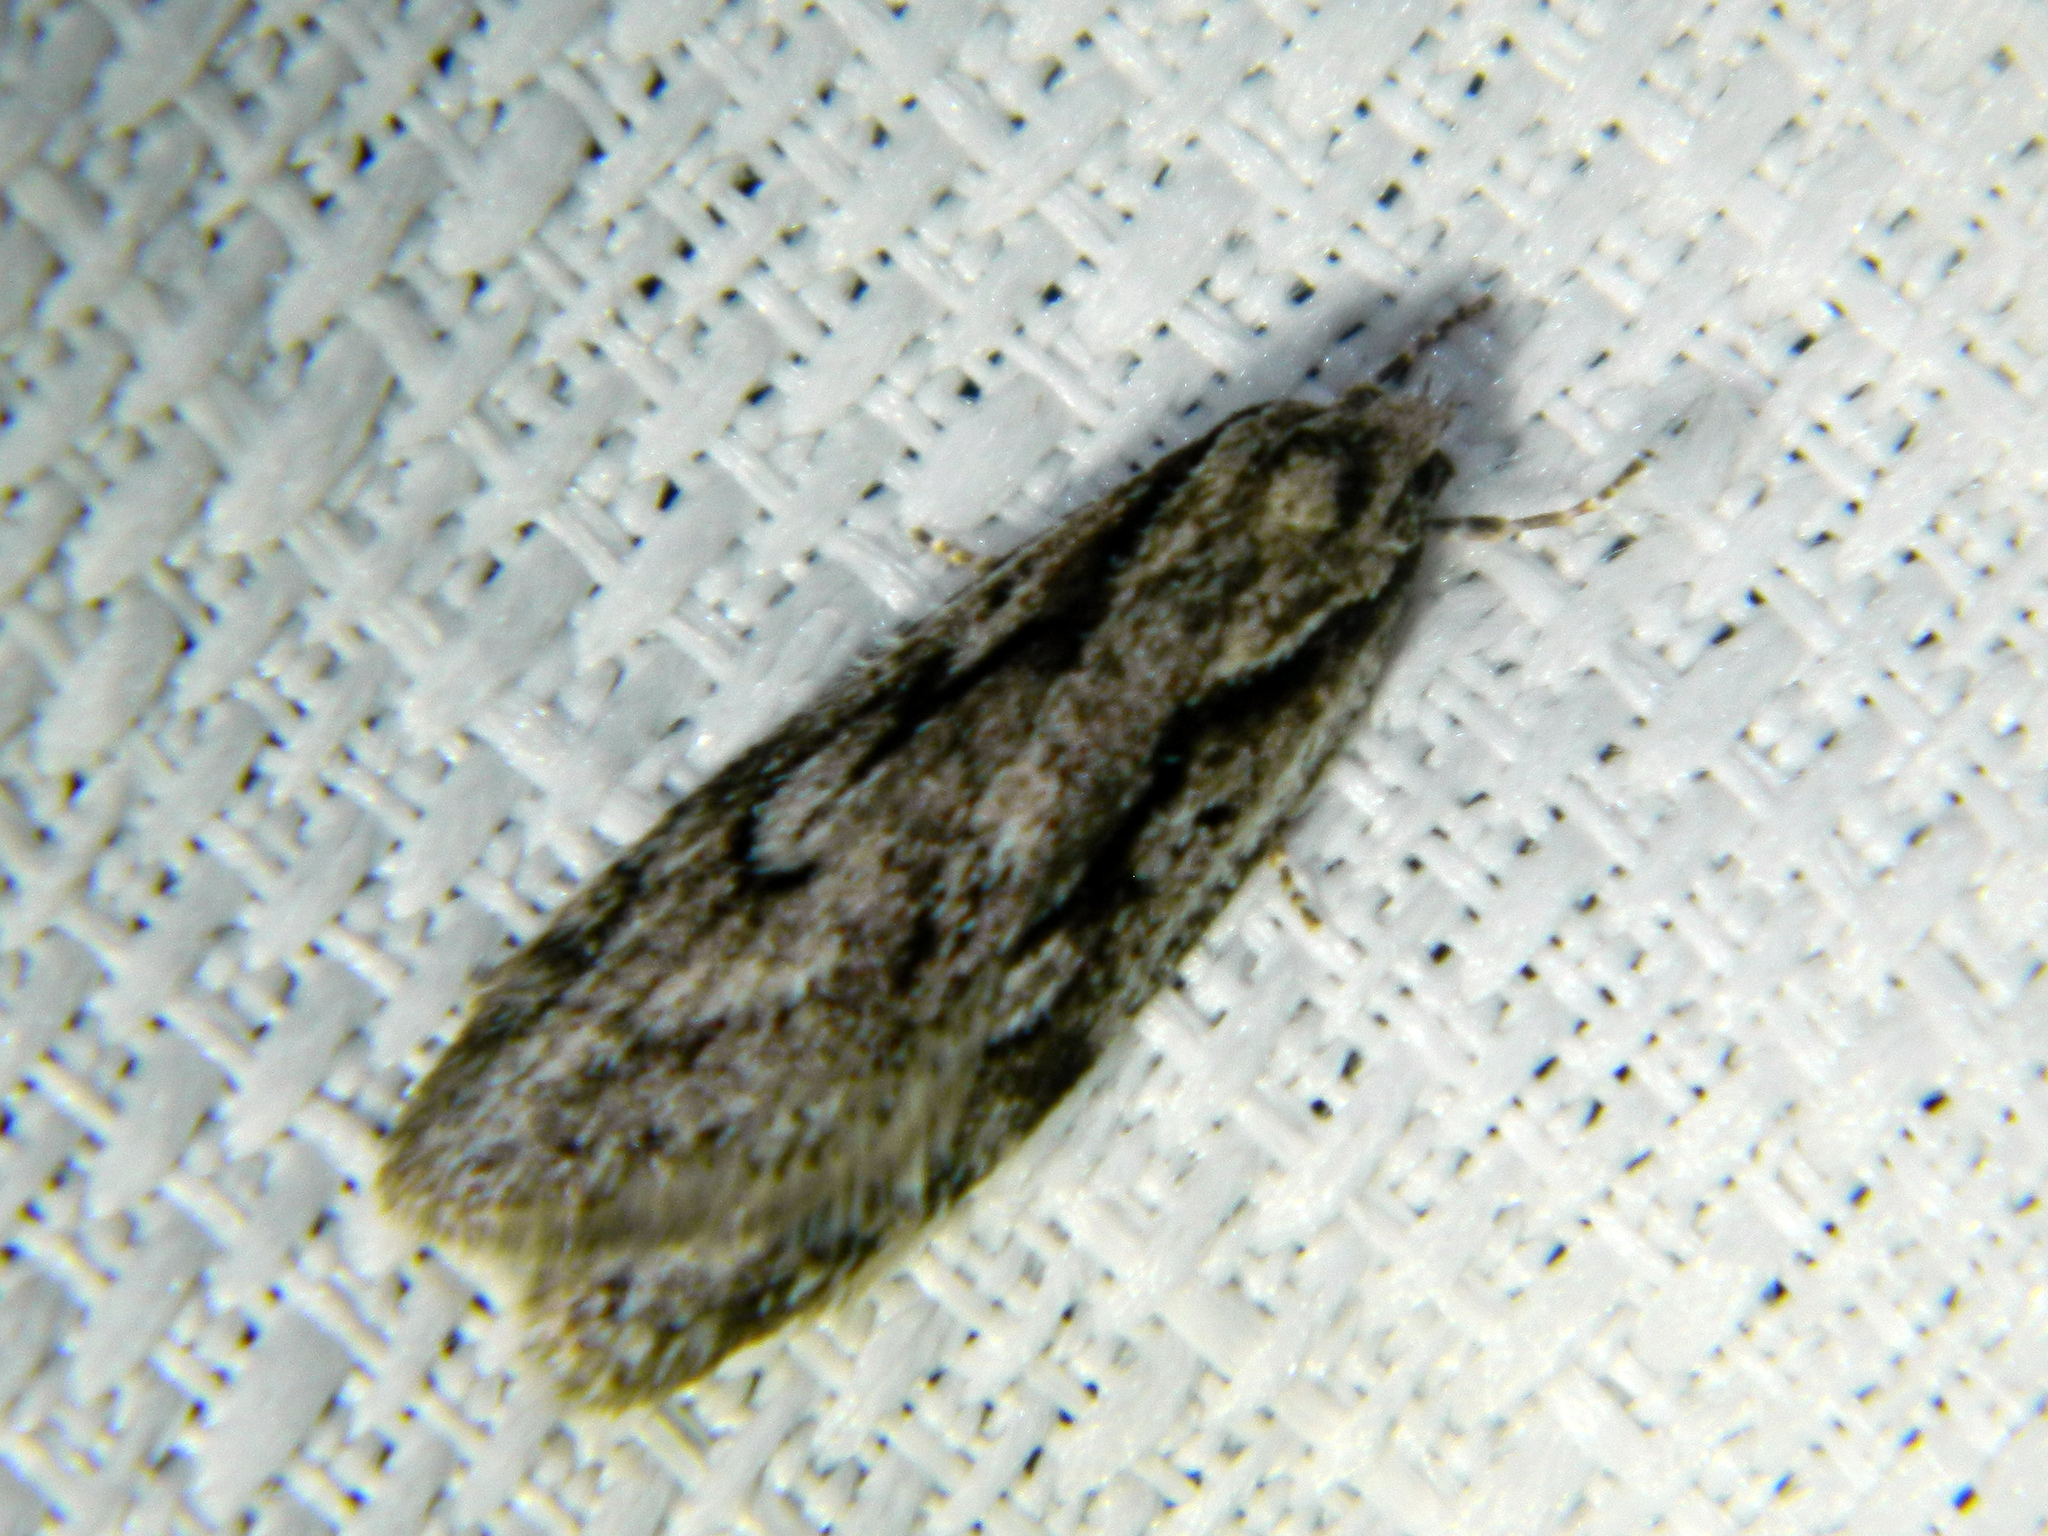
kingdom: Animalia
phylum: Arthropoda
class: Insecta
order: Lepidoptera
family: Depressariidae
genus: Semioscopis
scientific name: Semioscopis aurorella
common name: Aurora flatbody moth
